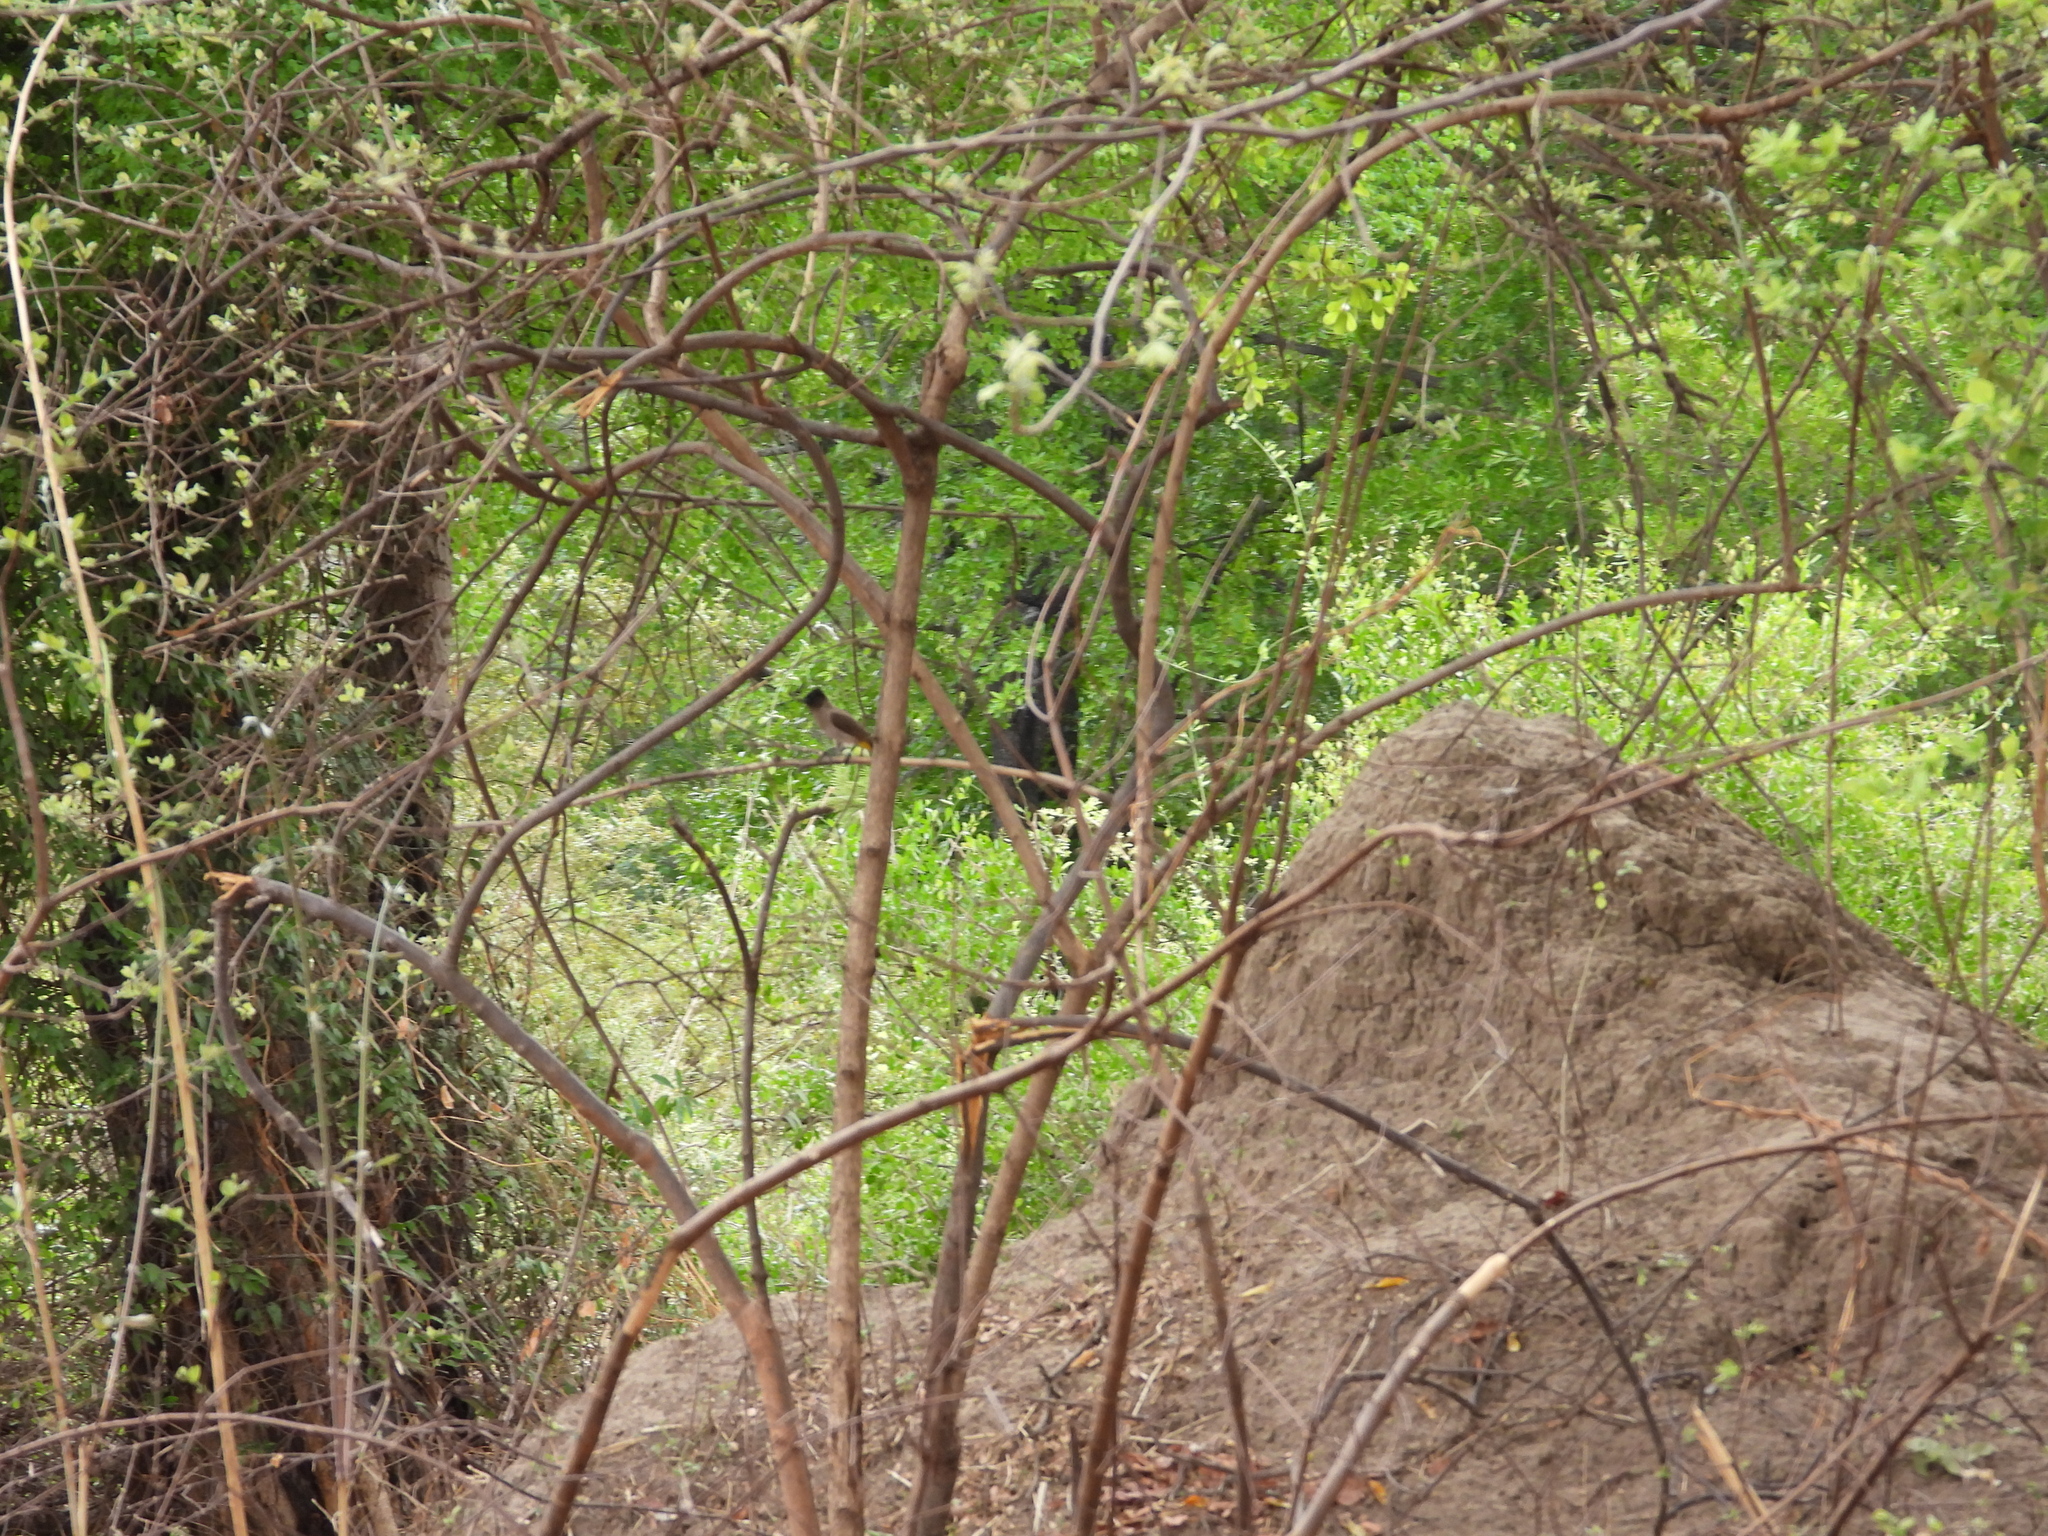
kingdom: Animalia
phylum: Chordata
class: Aves
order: Passeriformes
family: Pycnonotidae
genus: Pycnonotus
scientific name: Pycnonotus barbatus
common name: Common bulbul
